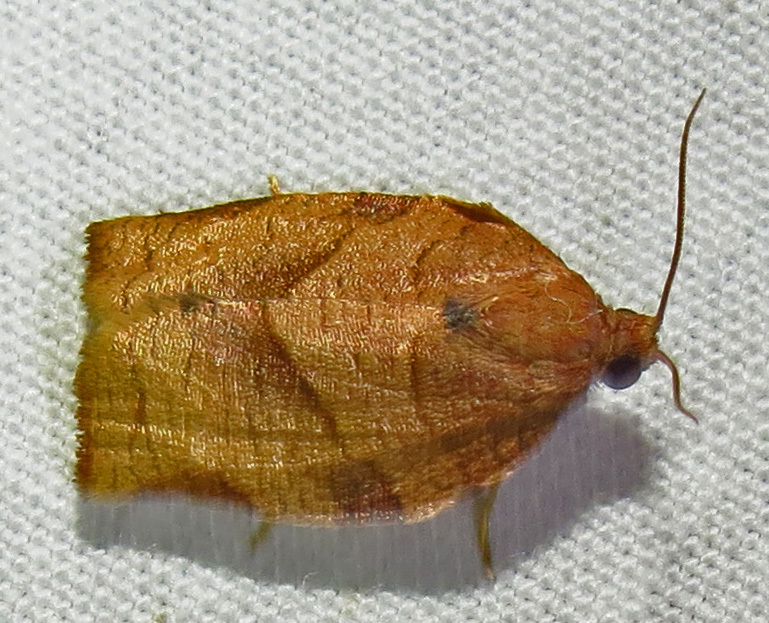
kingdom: Animalia
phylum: Arthropoda
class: Insecta
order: Lepidoptera
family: Tortricidae
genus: Choristoneura
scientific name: Choristoneura rosaceana
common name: Oblique-banded leafroller moth
